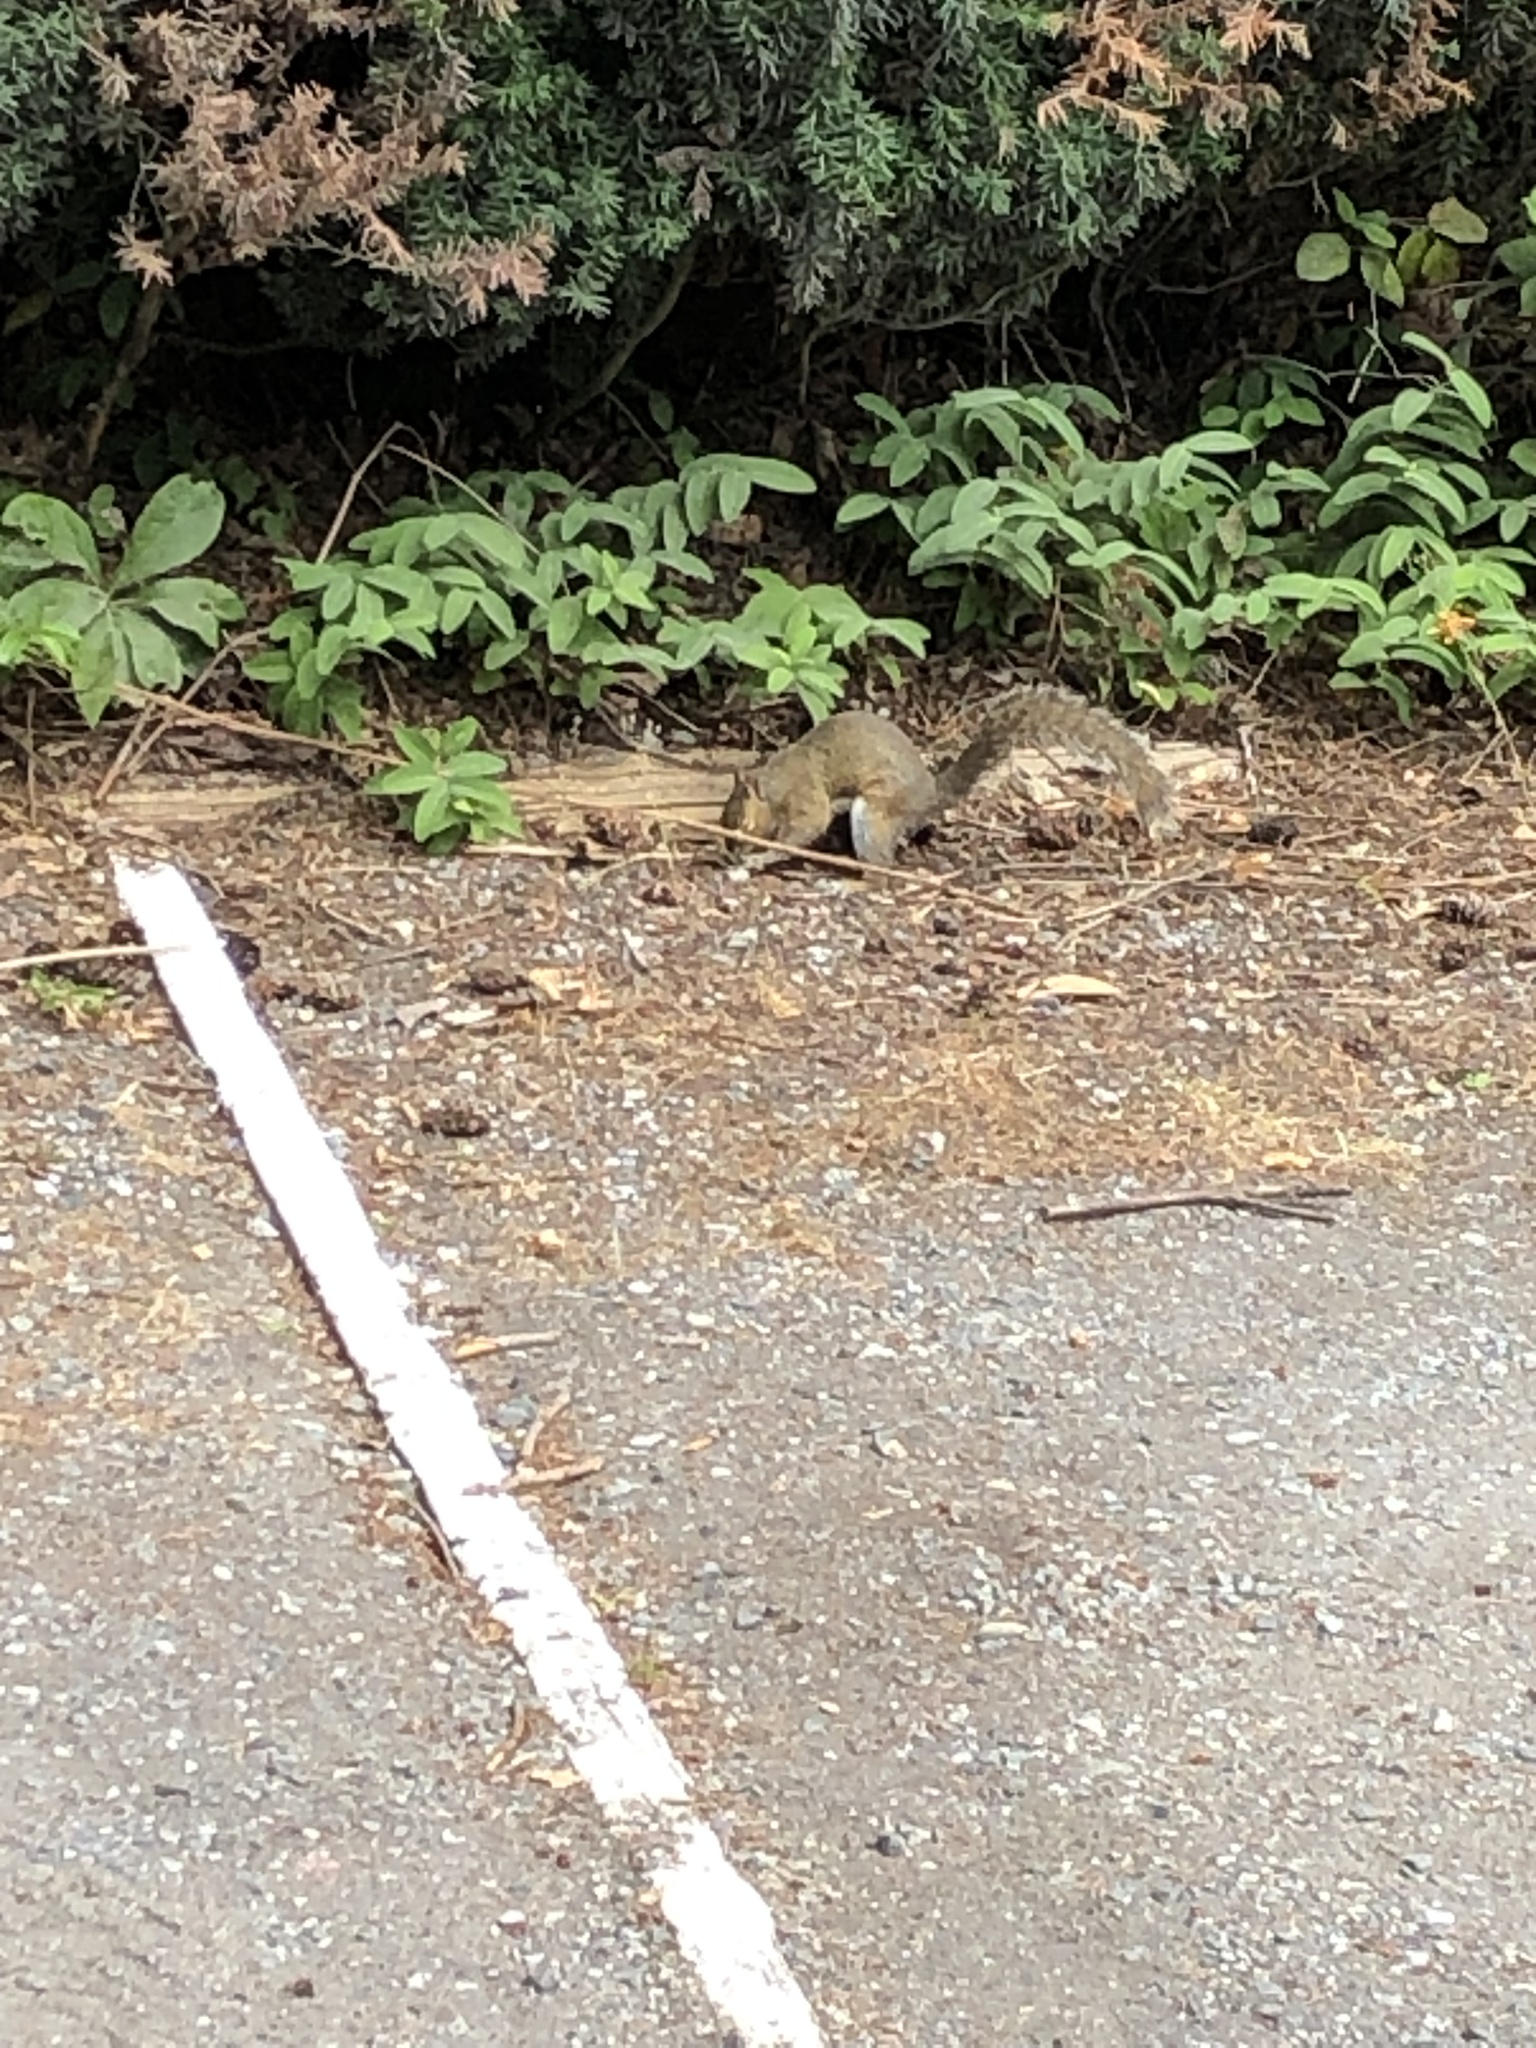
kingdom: Animalia
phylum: Chordata
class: Mammalia
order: Rodentia
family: Sciuridae
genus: Sciurus
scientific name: Sciurus carolinensis
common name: Eastern gray squirrel
